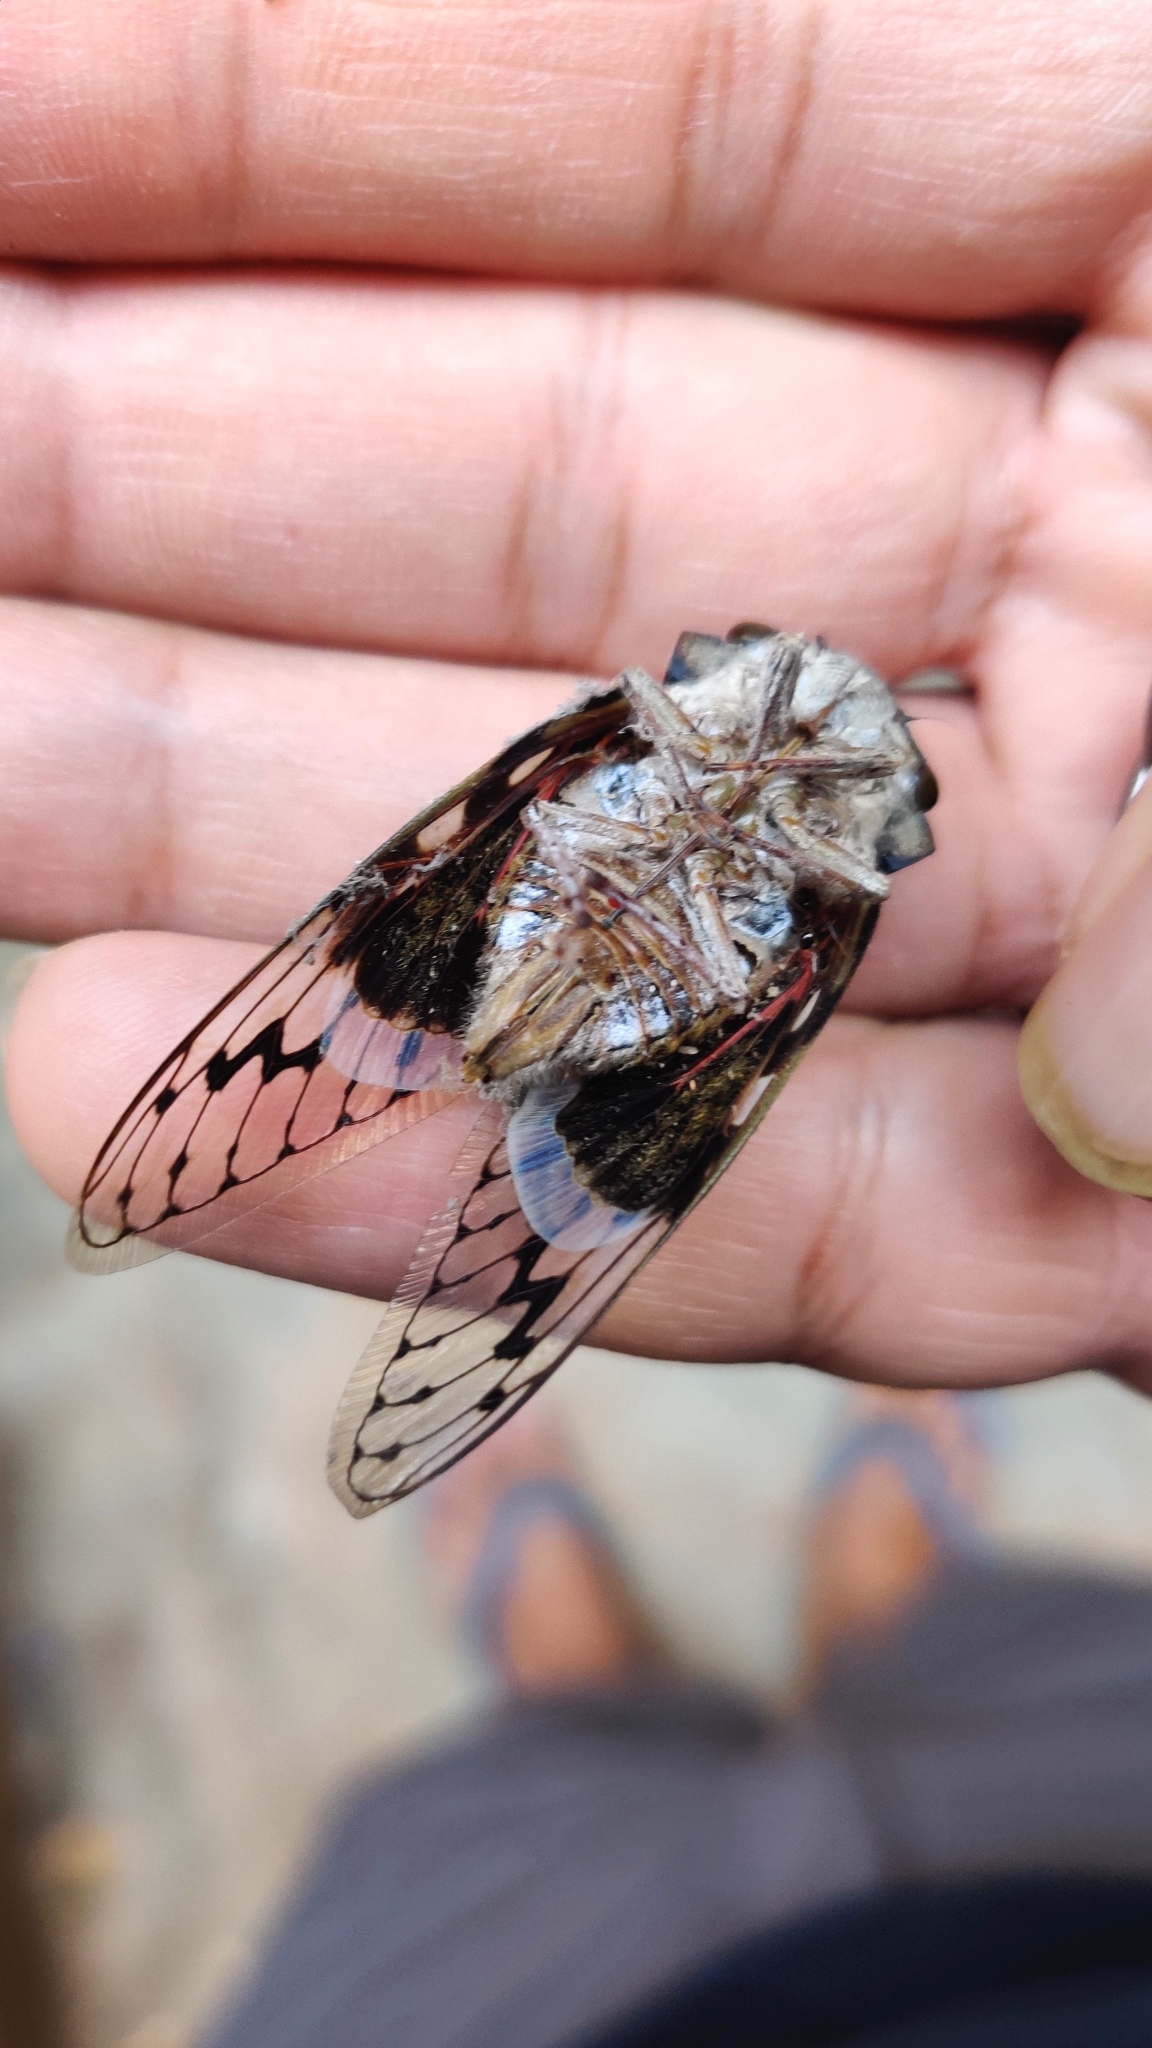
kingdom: Animalia
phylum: Arthropoda
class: Insecta
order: Hemiptera
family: Cicadidae
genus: Platypleura
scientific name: Platypleura octoguttata
